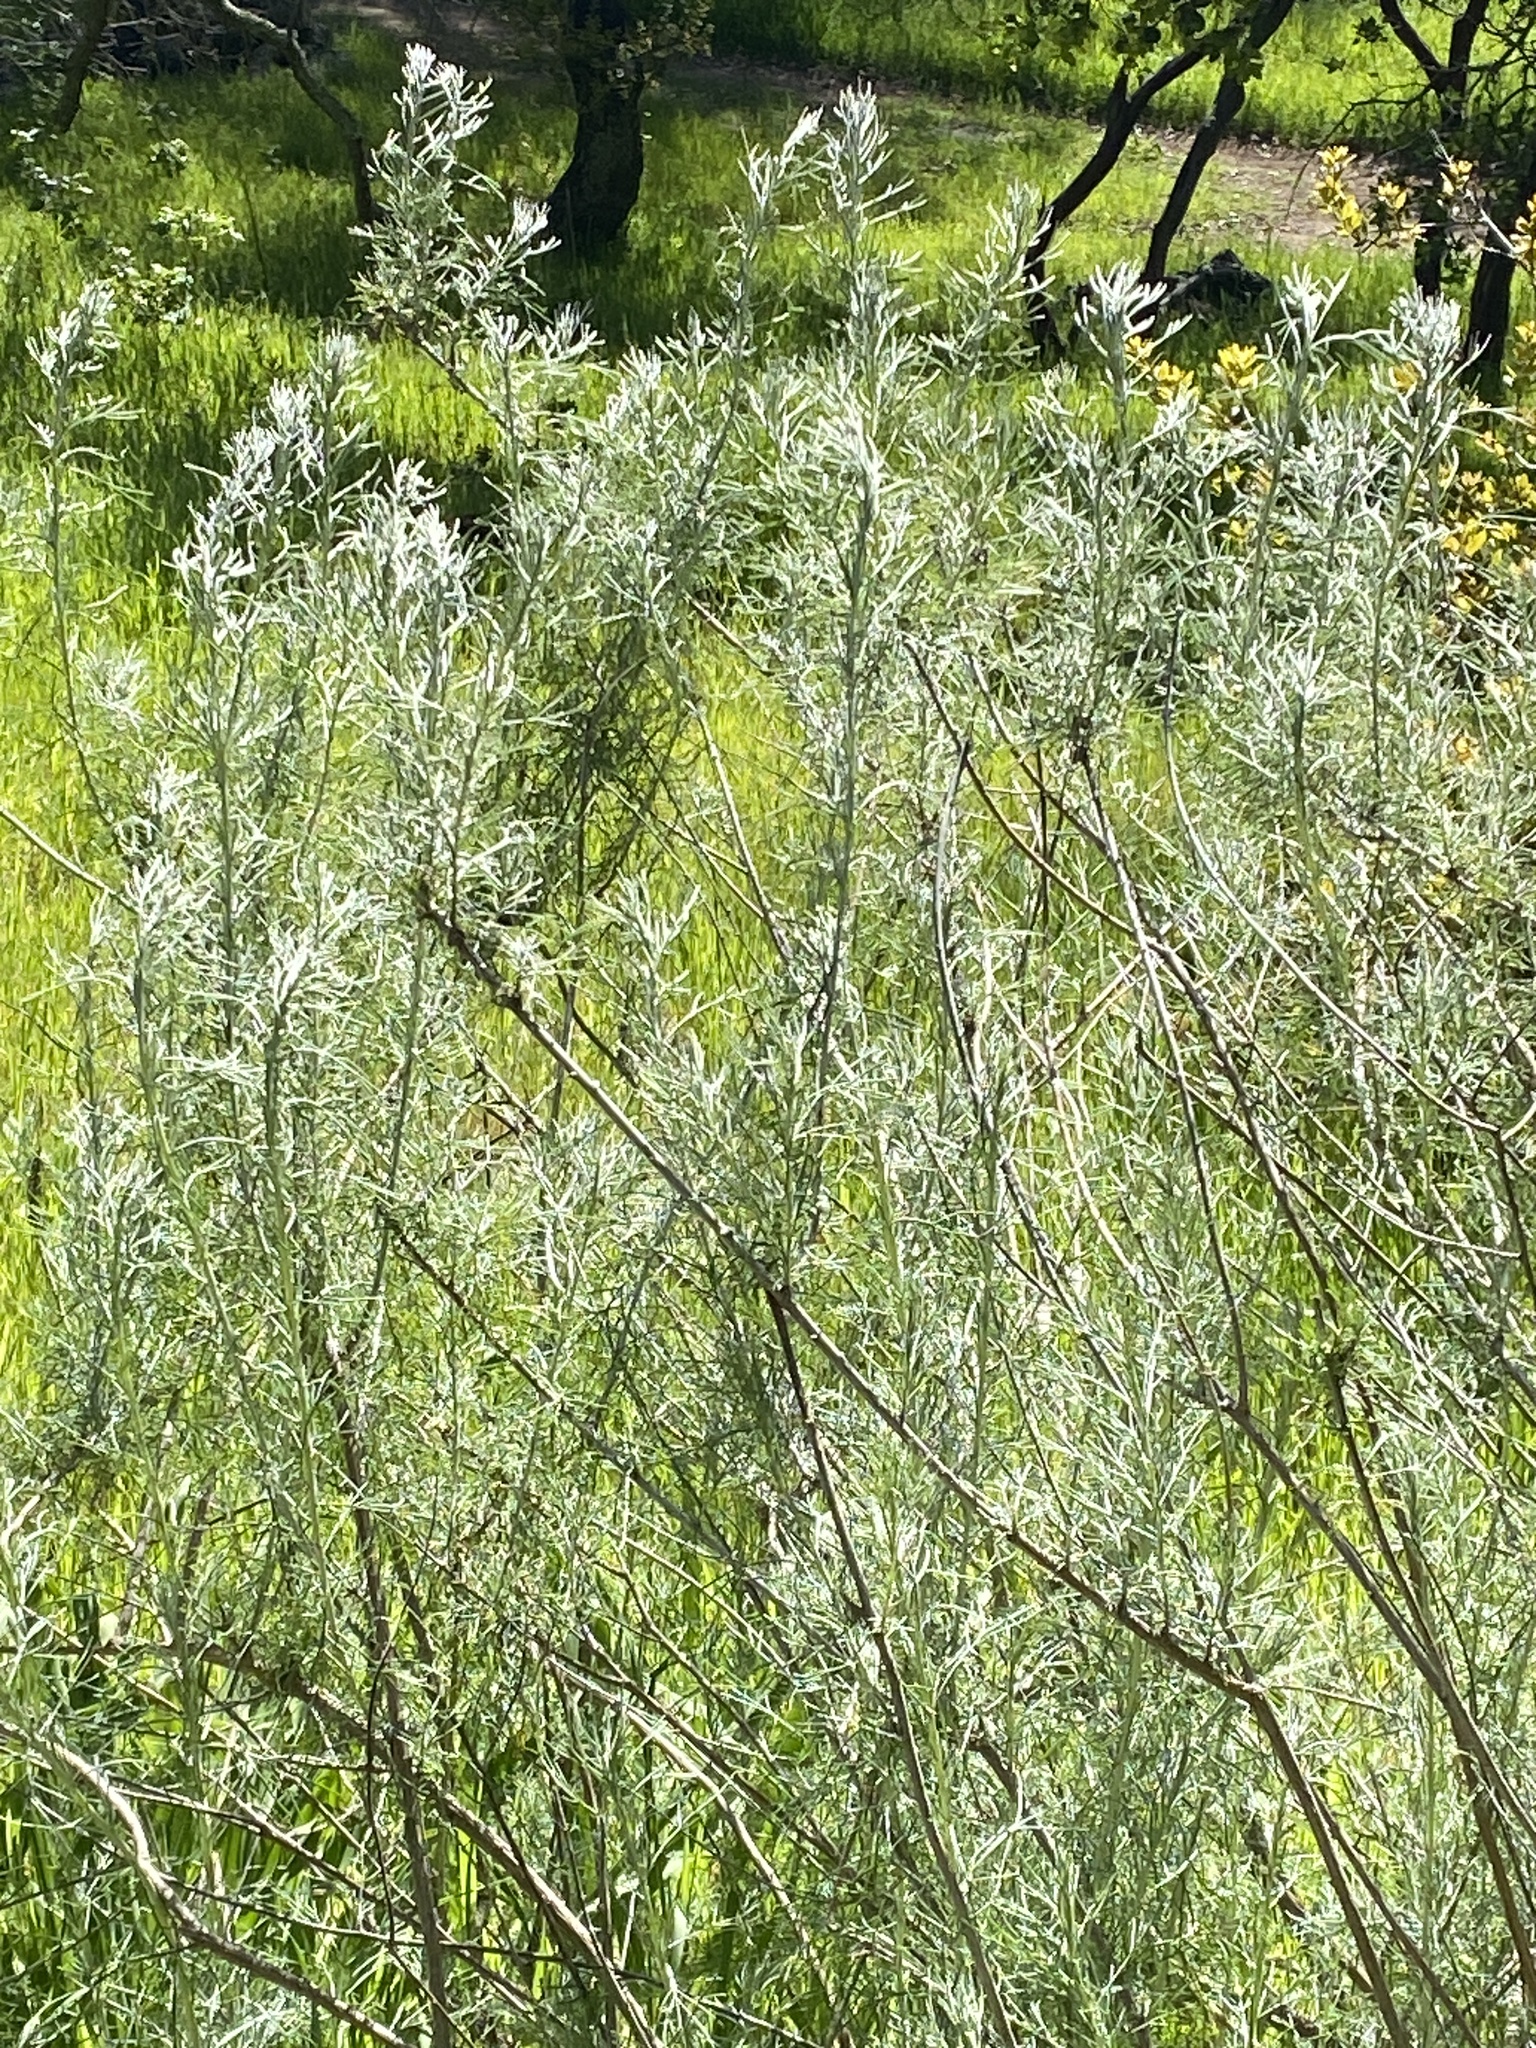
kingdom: Plantae
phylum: Tracheophyta
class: Magnoliopsida
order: Asterales
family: Asteraceae
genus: Artemisia
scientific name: Artemisia californica
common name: California sagebrush
